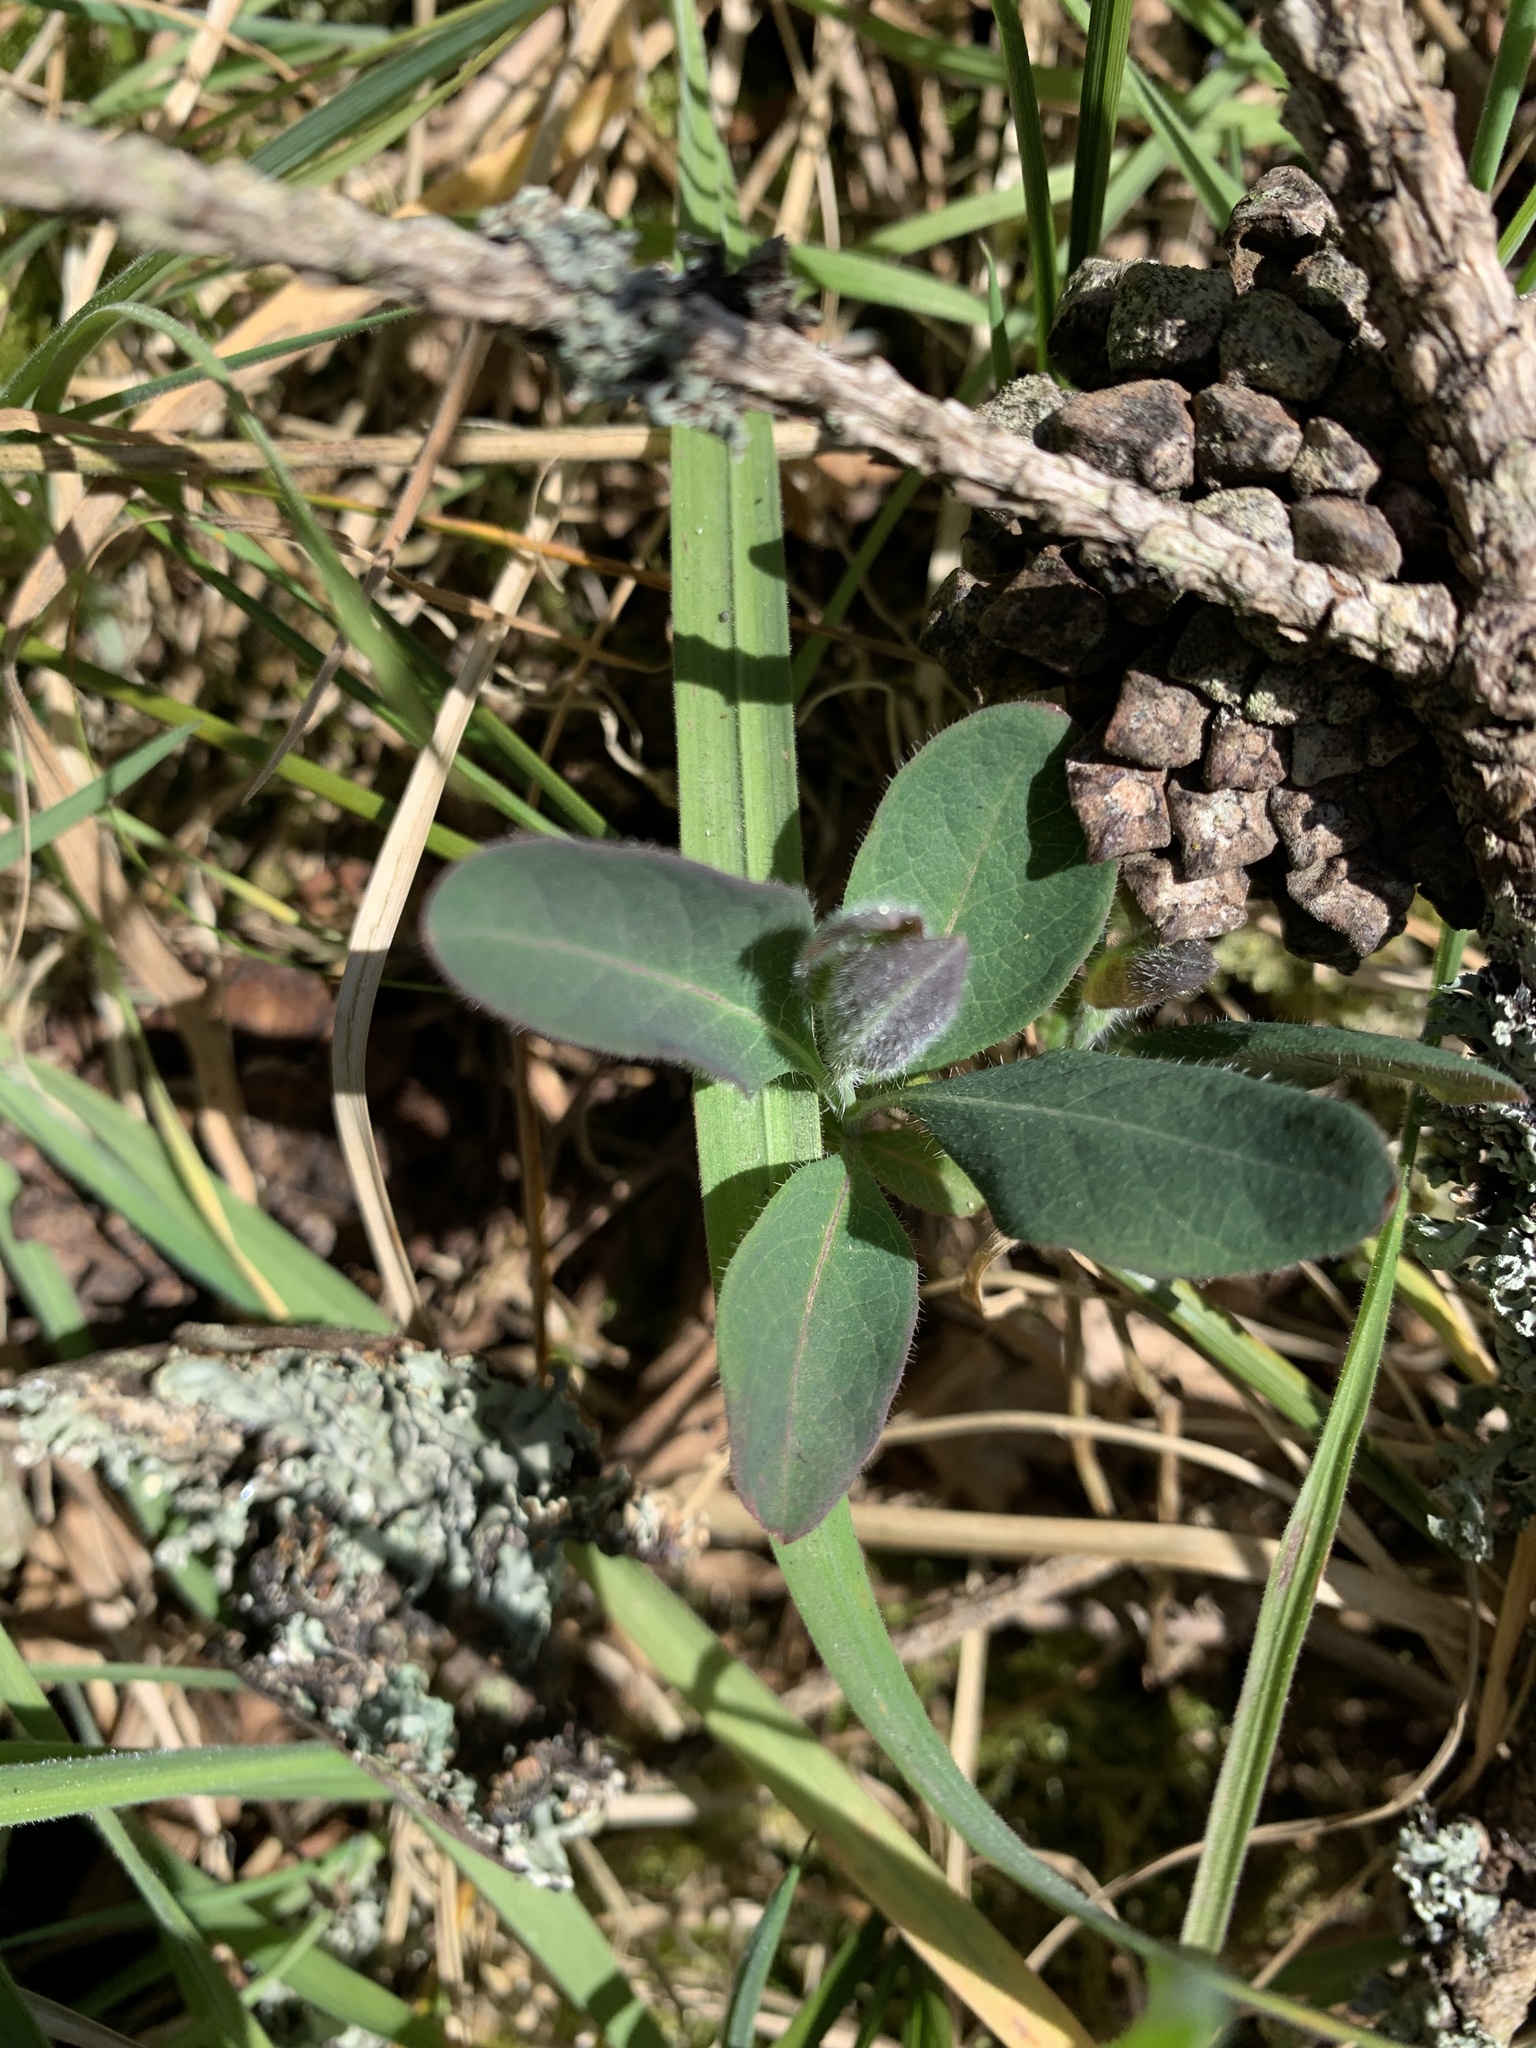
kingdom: Plantae
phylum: Tracheophyta
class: Magnoliopsida
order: Dipsacales
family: Caprifoliaceae
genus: Lonicera
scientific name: Lonicera periclymenum
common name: European honeysuckle
